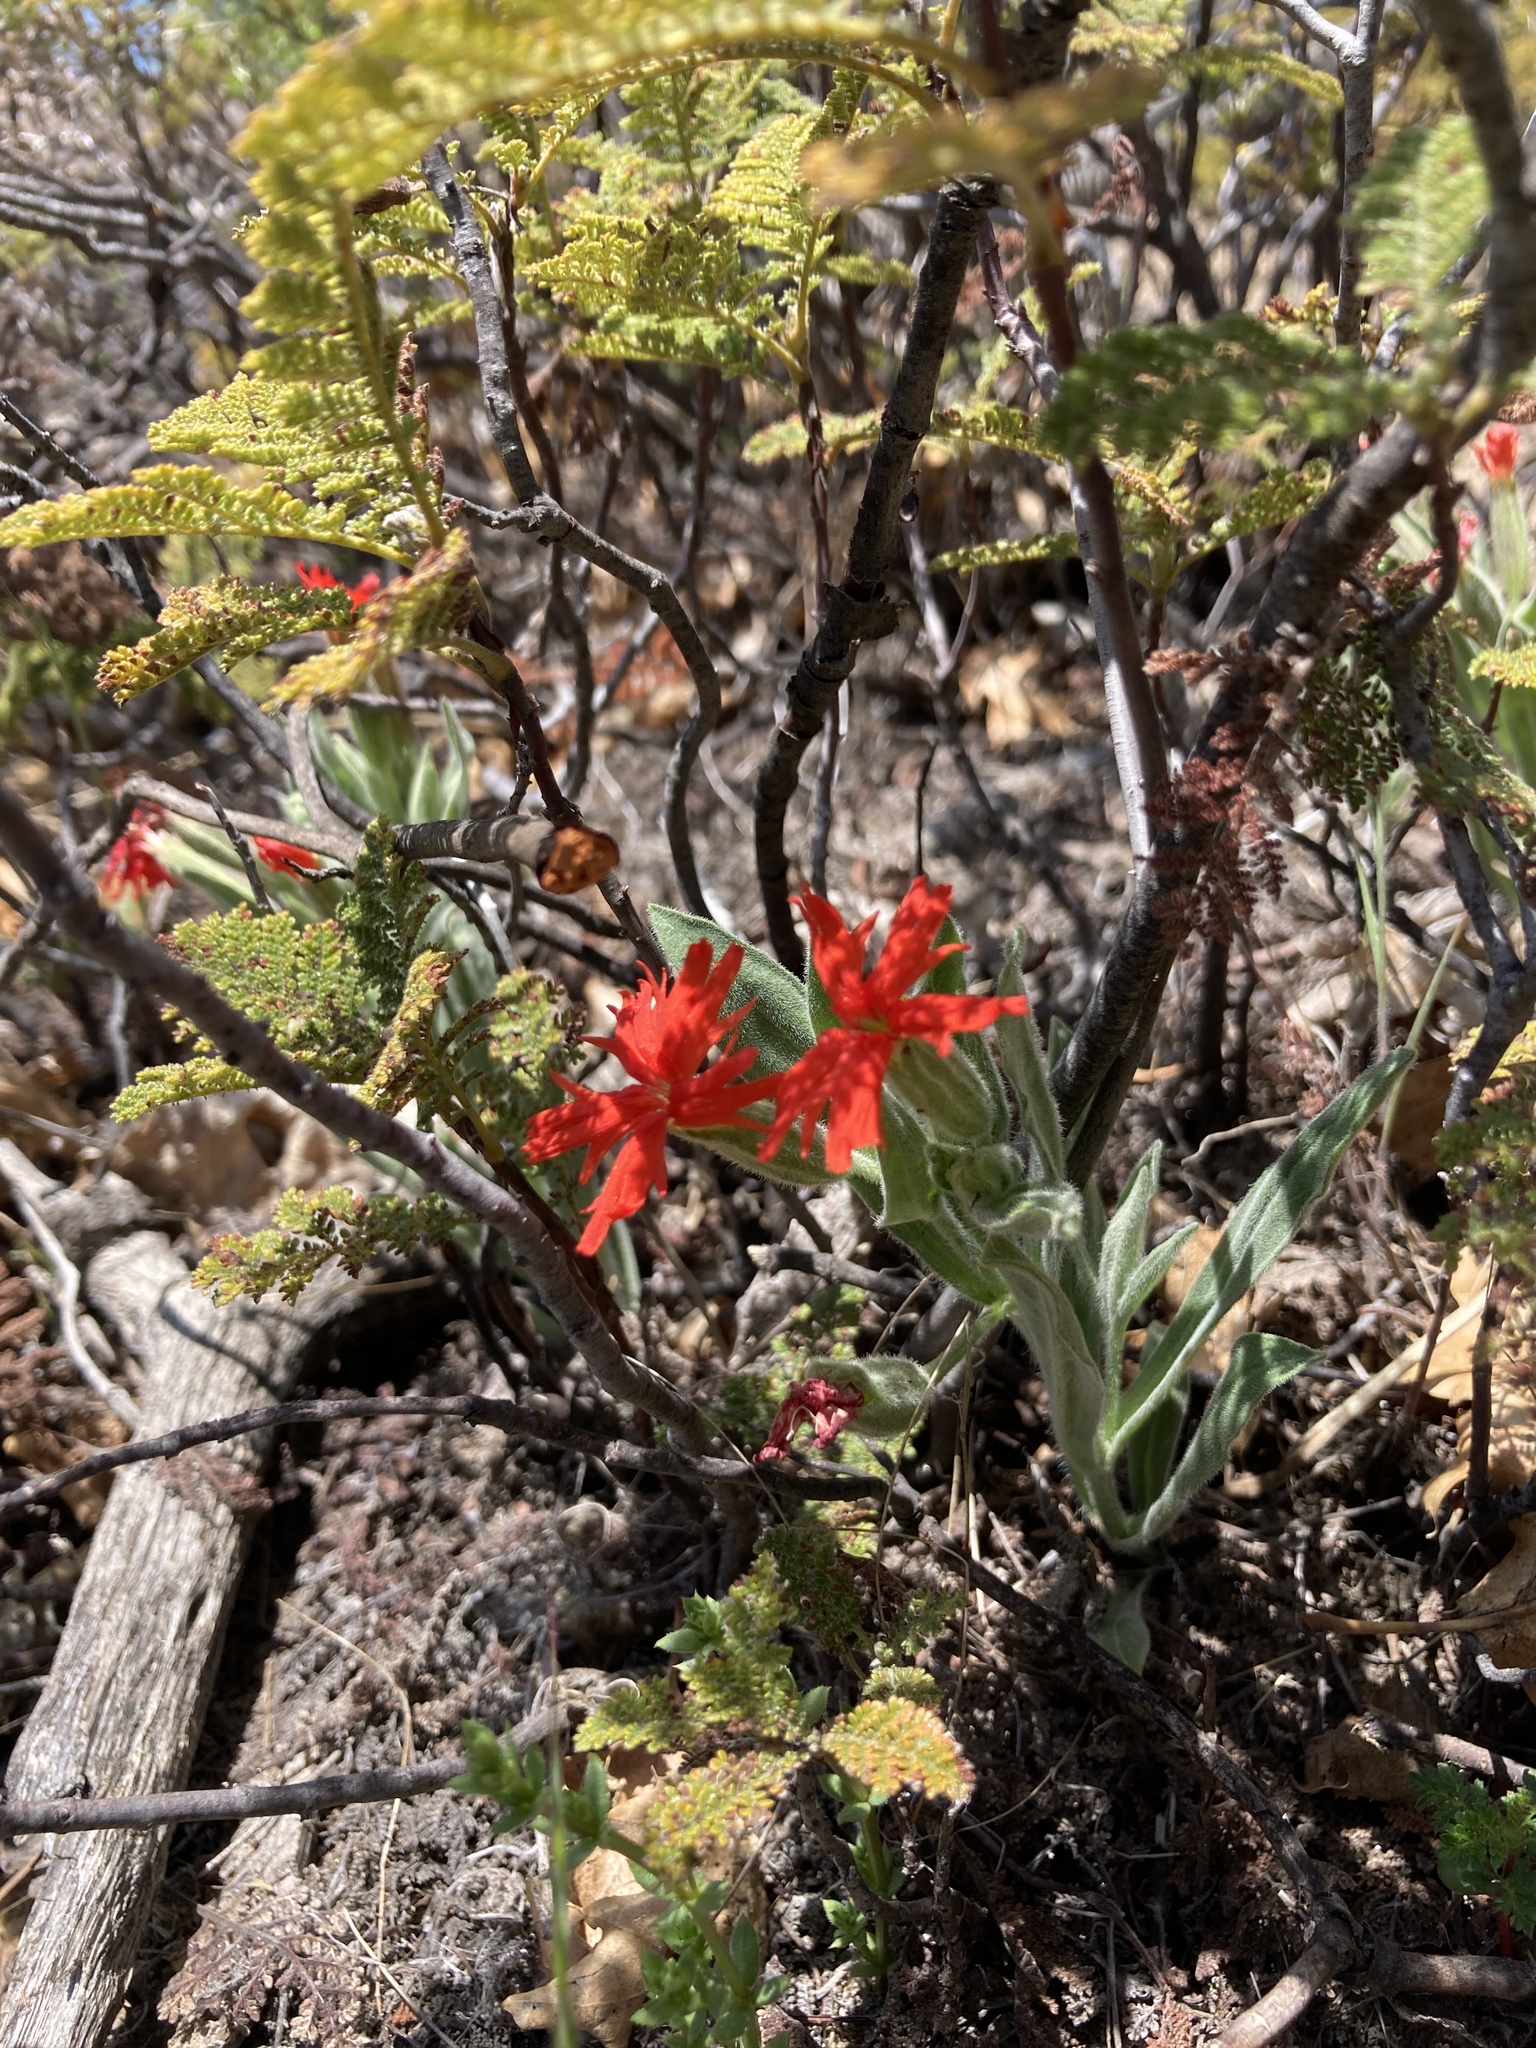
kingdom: Plantae
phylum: Tracheophyta
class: Magnoliopsida
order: Caryophyllales
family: Caryophyllaceae
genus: Silene
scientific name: Silene laciniata
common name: Indian-pink
